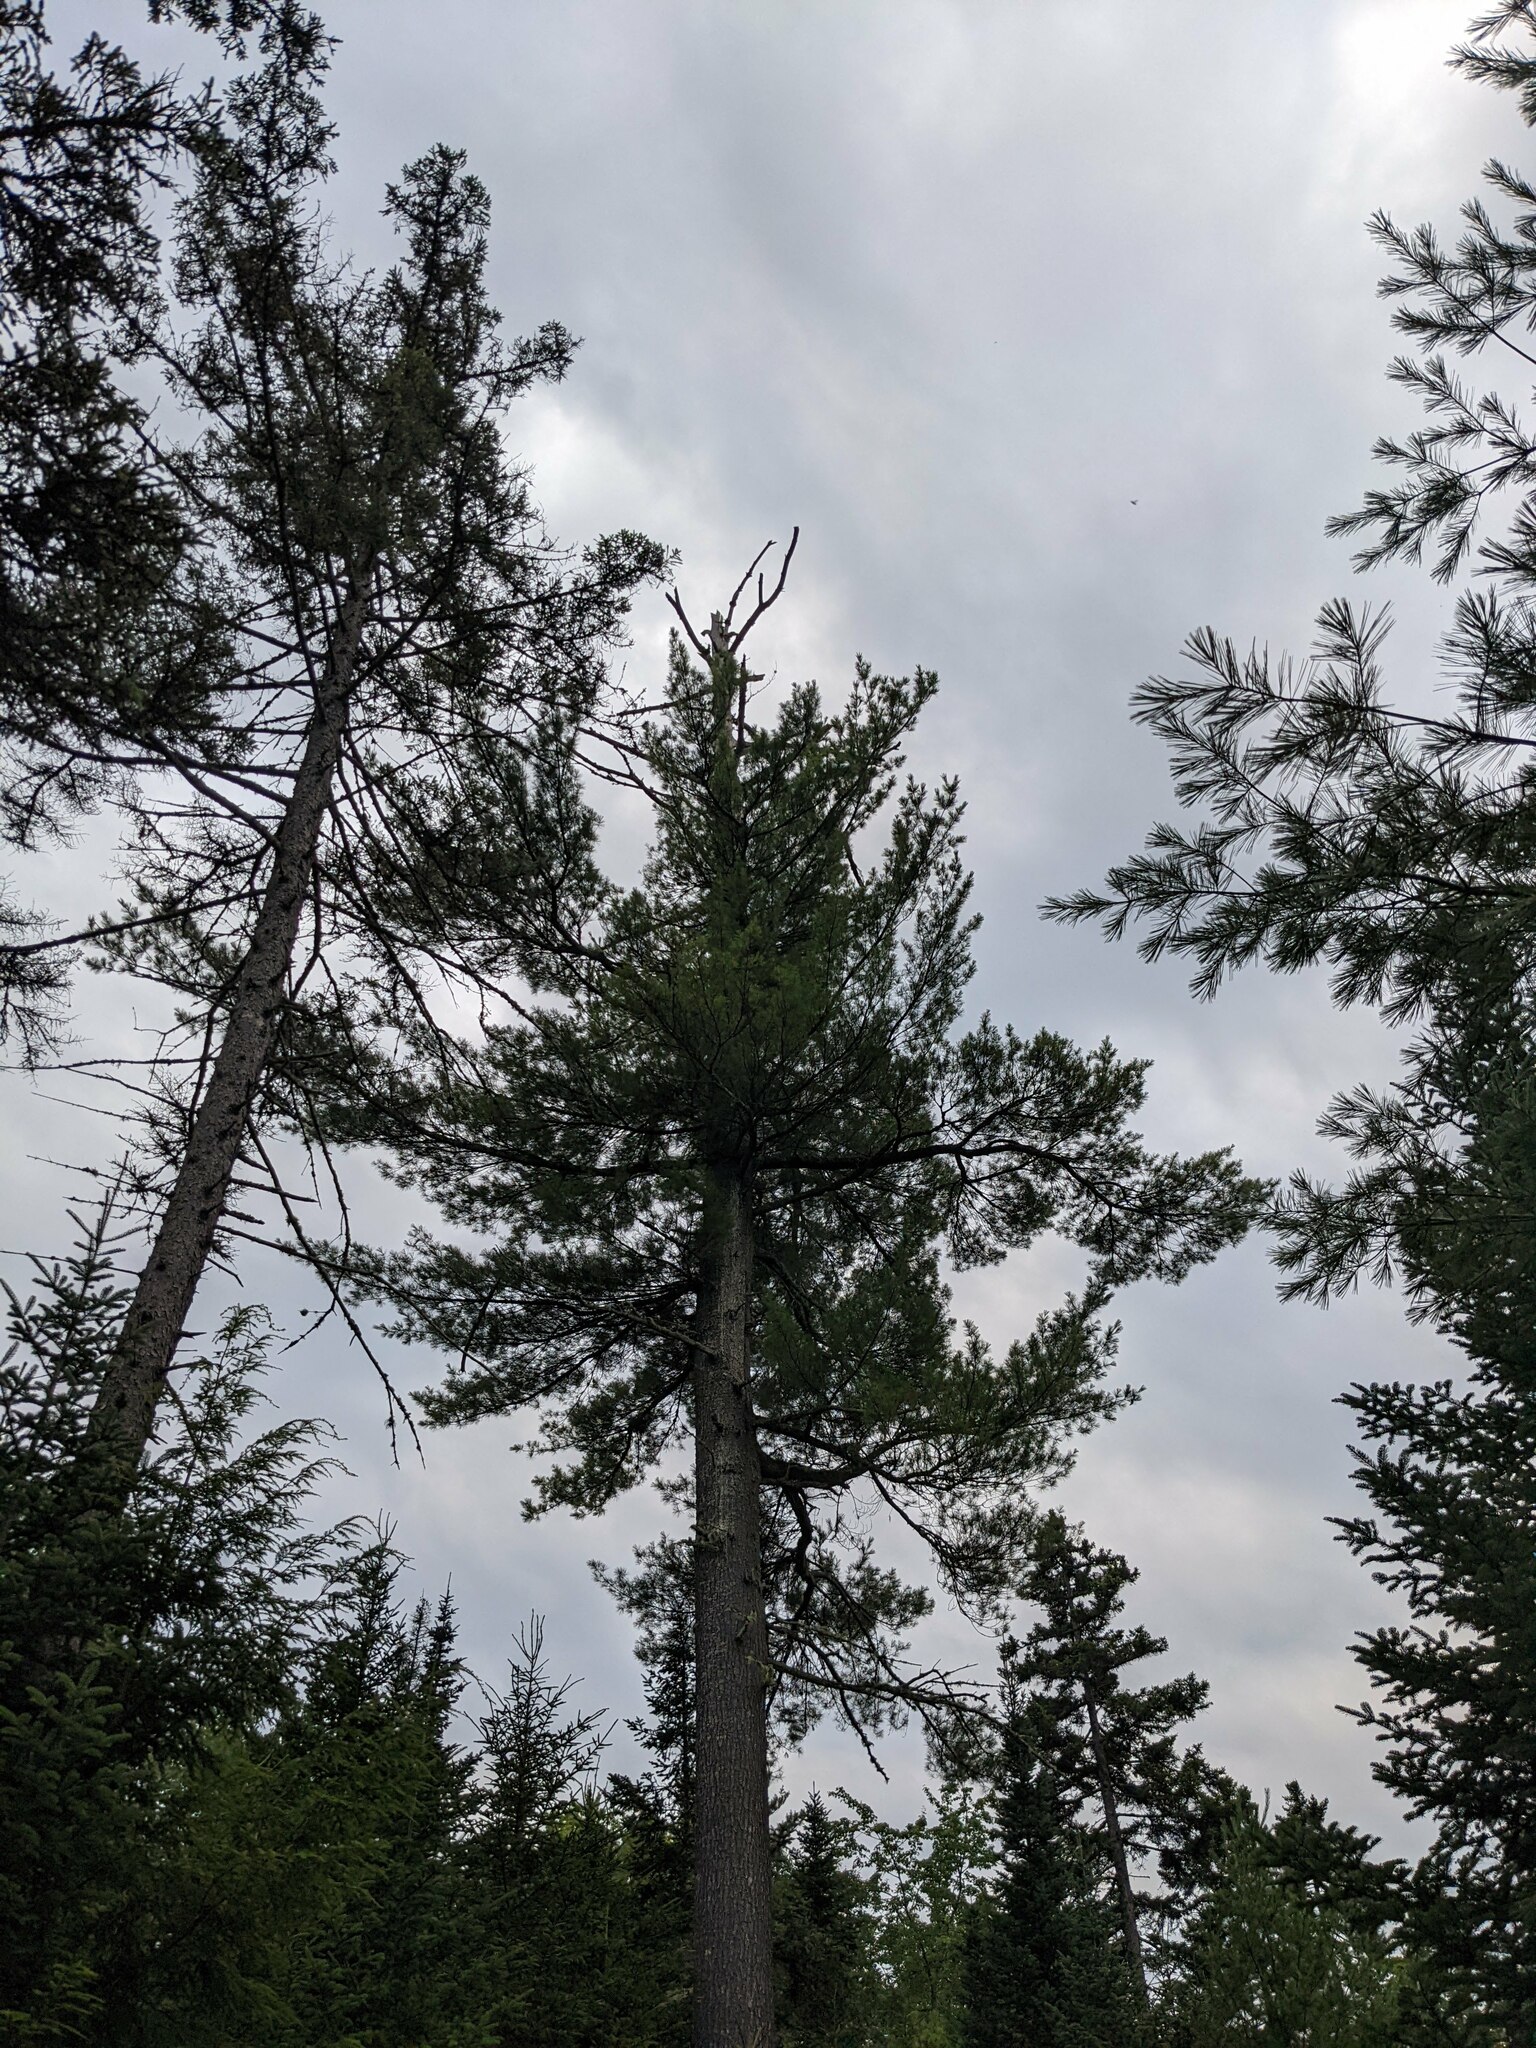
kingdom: Plantae
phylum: Tracheophyta
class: Pinopsida
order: Pinales
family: Pinaceae
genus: Pinus
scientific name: Pinus strobus
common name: Weymouth pine
